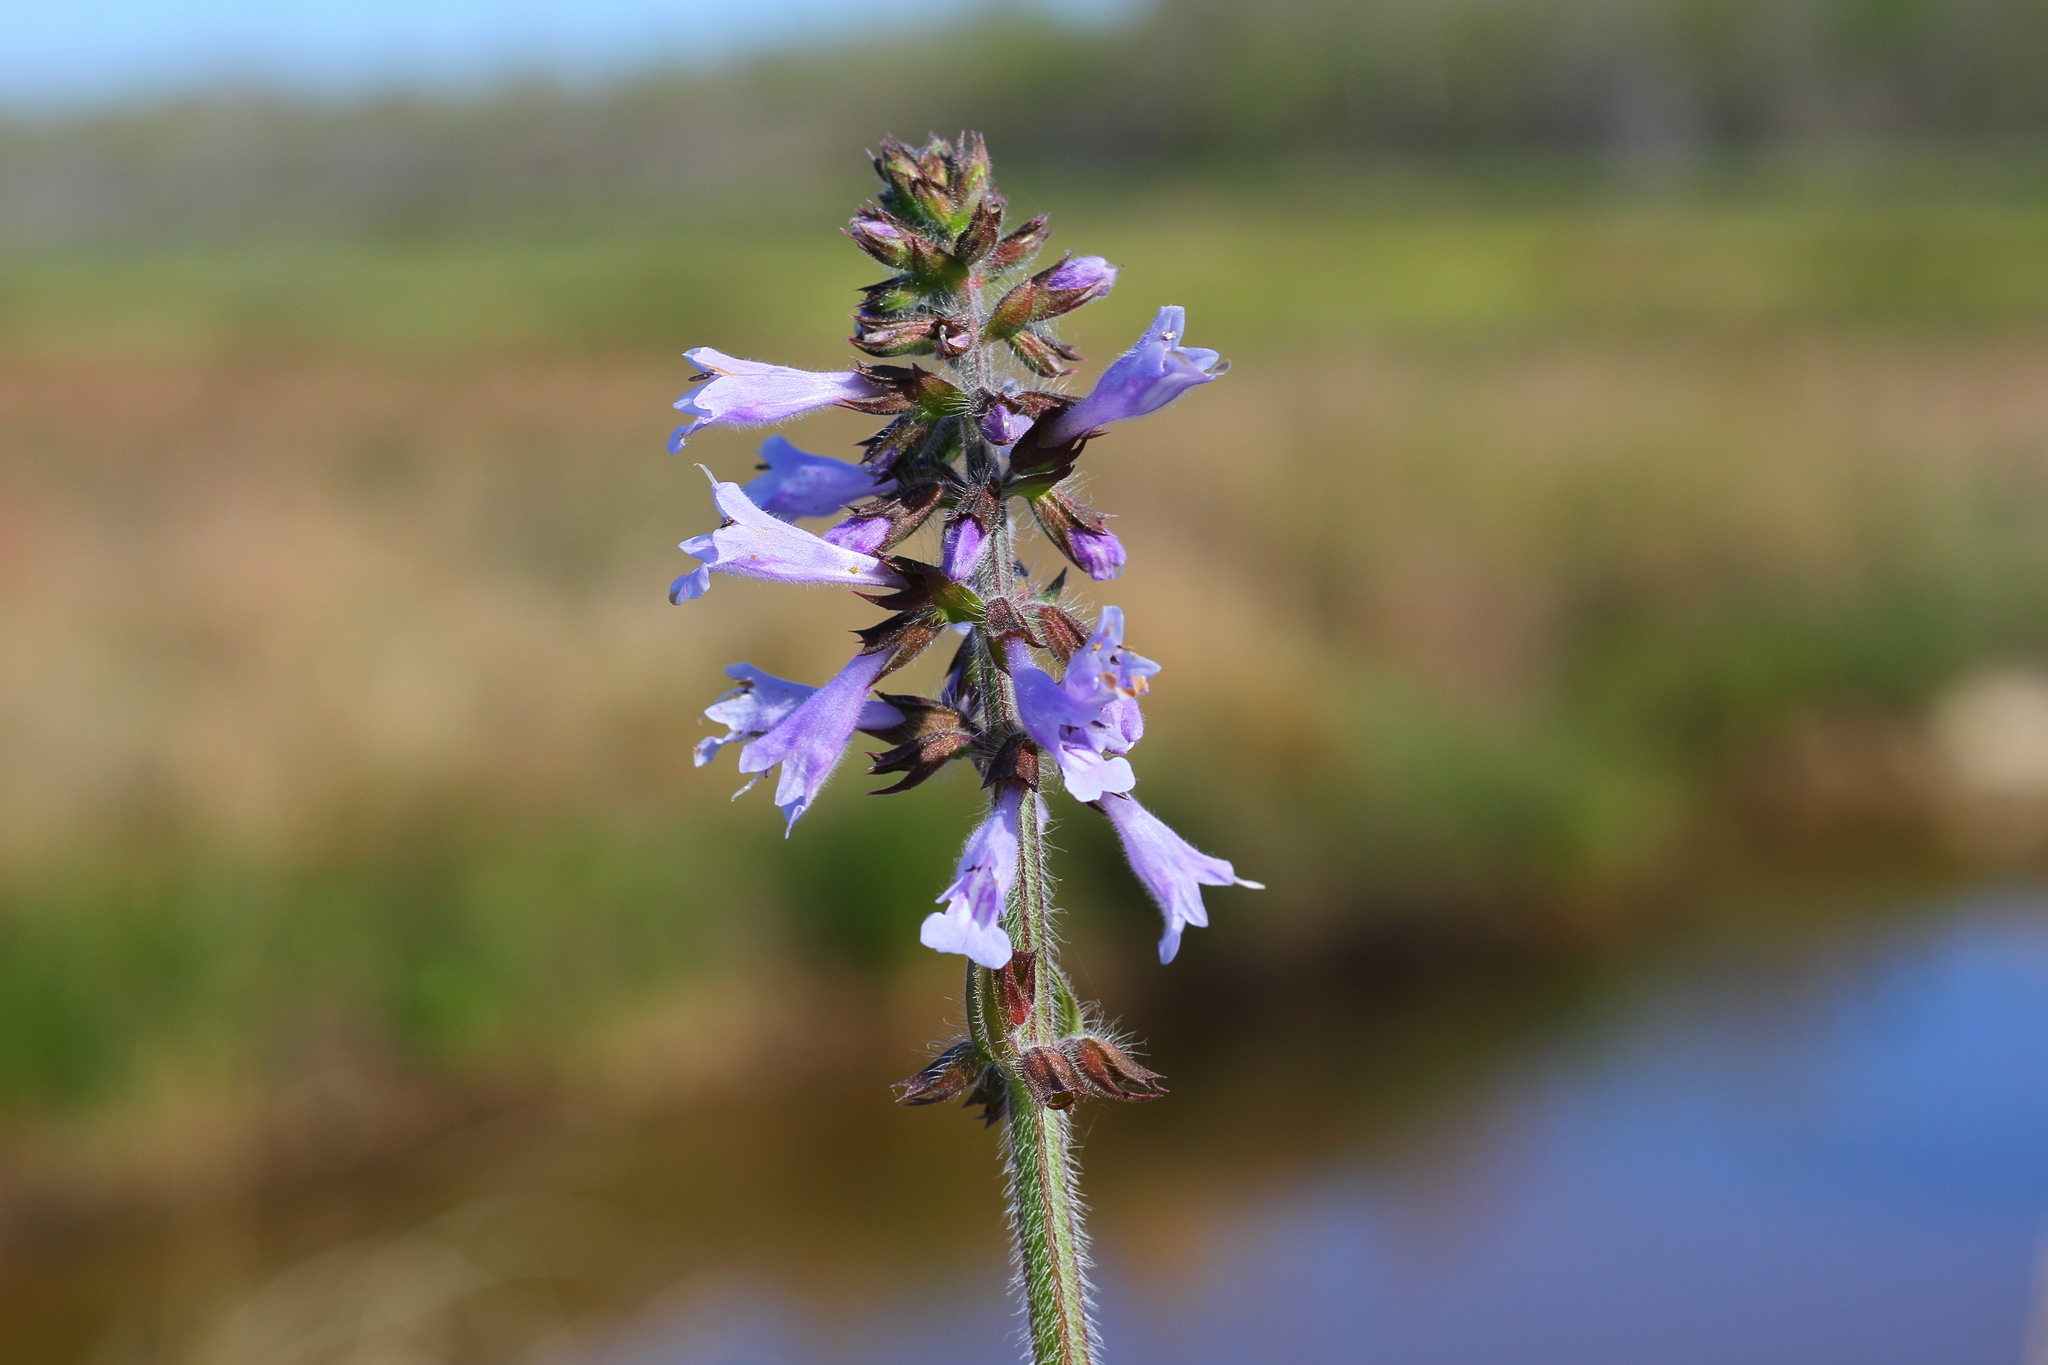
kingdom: Plantae
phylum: Tracheophyta
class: Magnoliopsida
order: Lamiales
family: Lamiaceae
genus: Salvia
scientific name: Salvia lyrata
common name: Cancerweed
